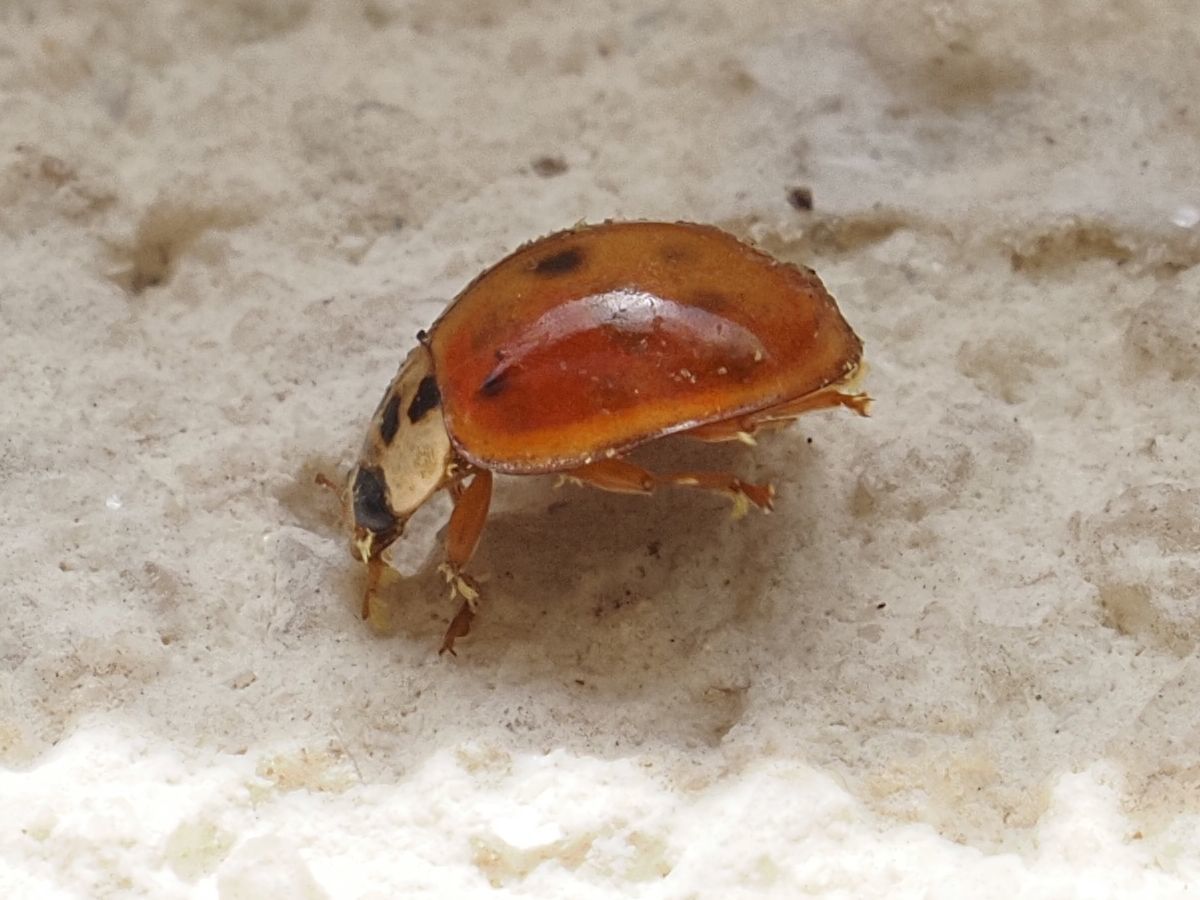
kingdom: Animalia
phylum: Arthropoda
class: Insecta
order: Coleoptera
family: Coccinellidae
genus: Harmonia
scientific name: Harmonia axyridis
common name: Harlequin ladybird
